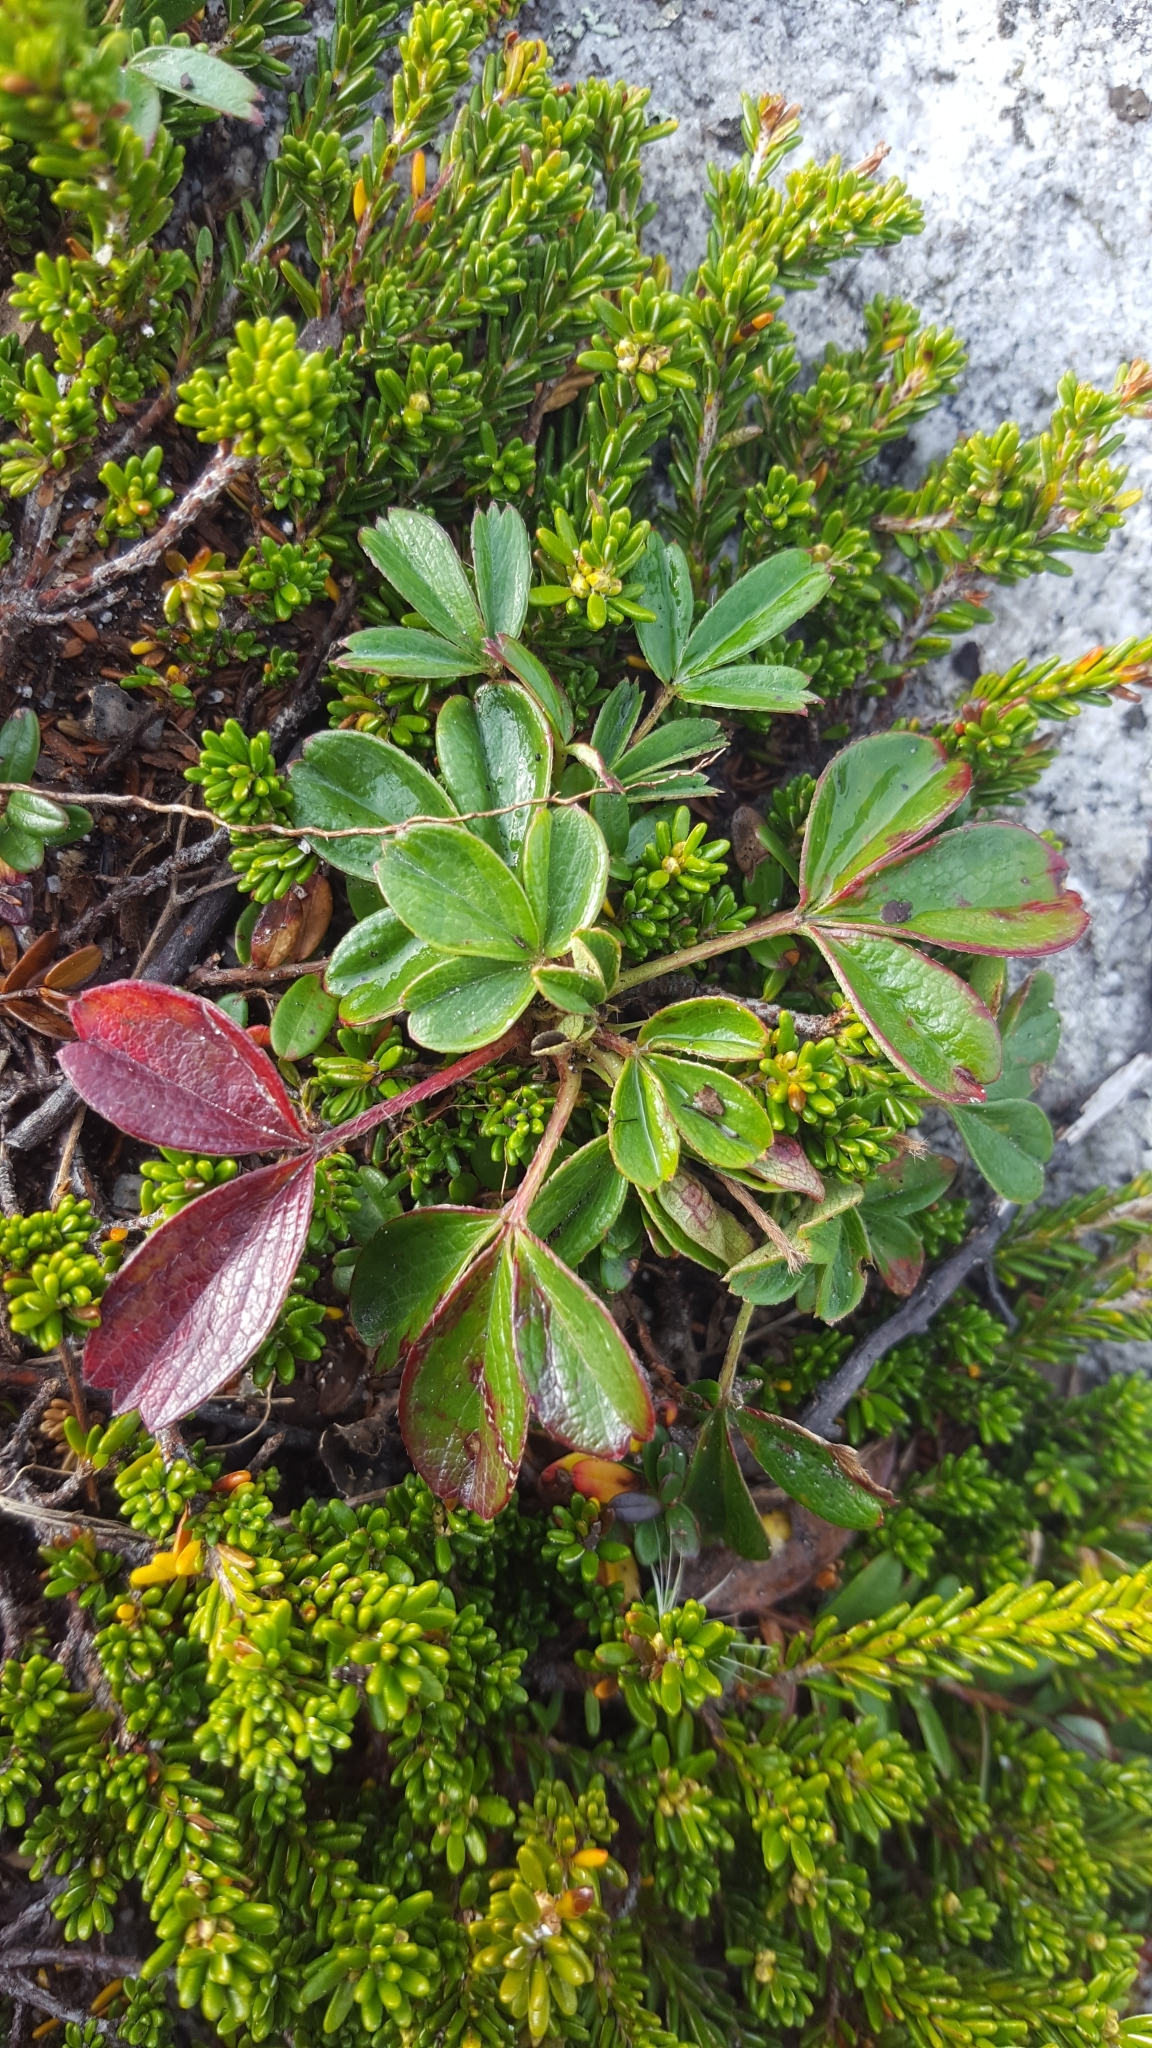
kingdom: Plantae
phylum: Tracheophyta
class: Magnoliopsida
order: Rosales
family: Rosaceae
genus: Sibbaldia
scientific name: Sibbaldia tridentata
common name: Three-toothed cinquefoil
